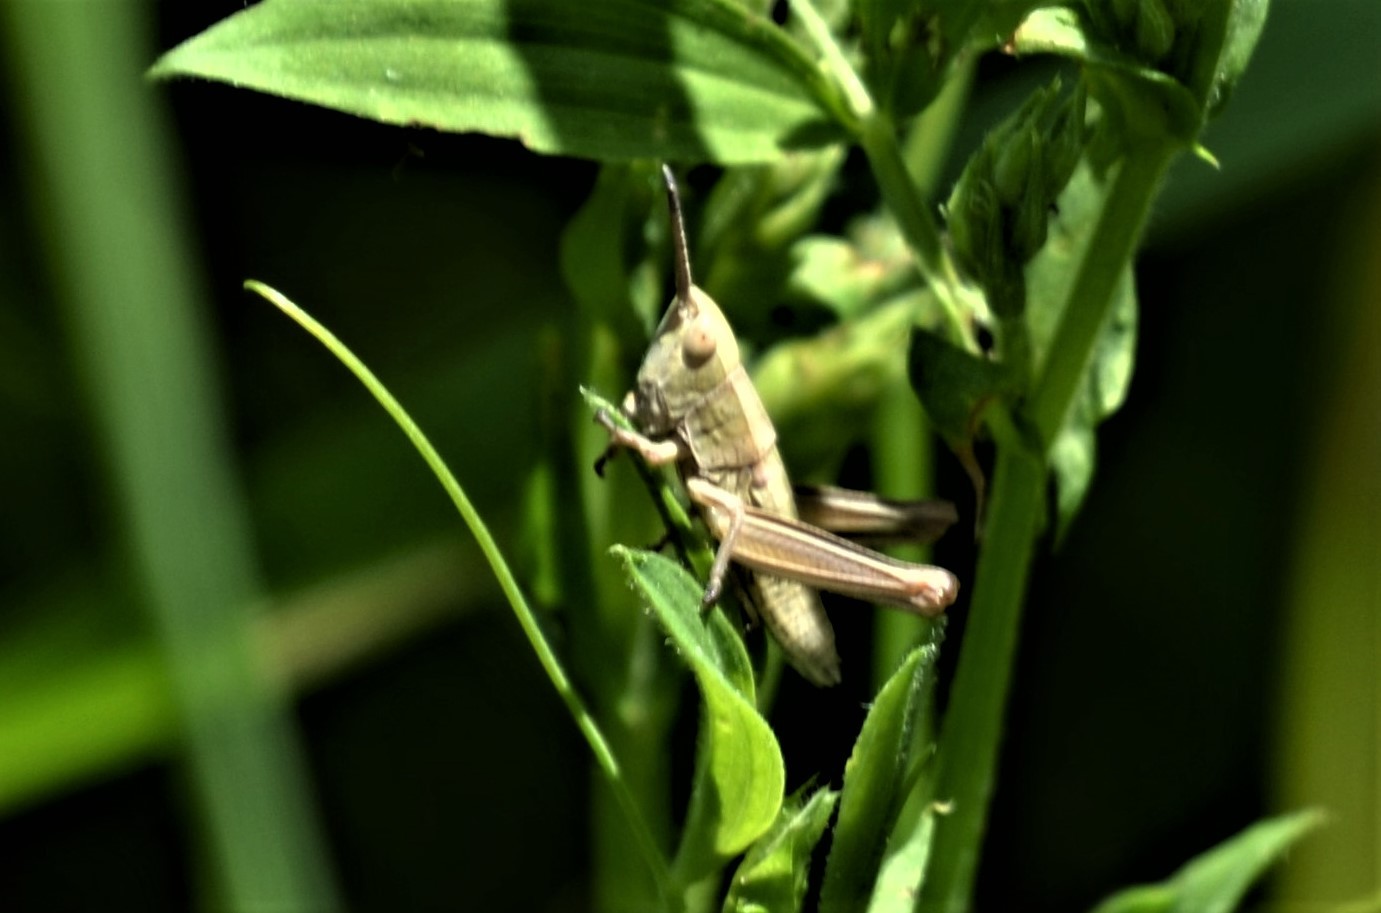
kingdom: Animalia
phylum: Arthropoda
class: Insecta
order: Orthoptera
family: Acrididae
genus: Euthystira
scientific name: Euthystira brachyptera
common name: Small gold grasshopper
